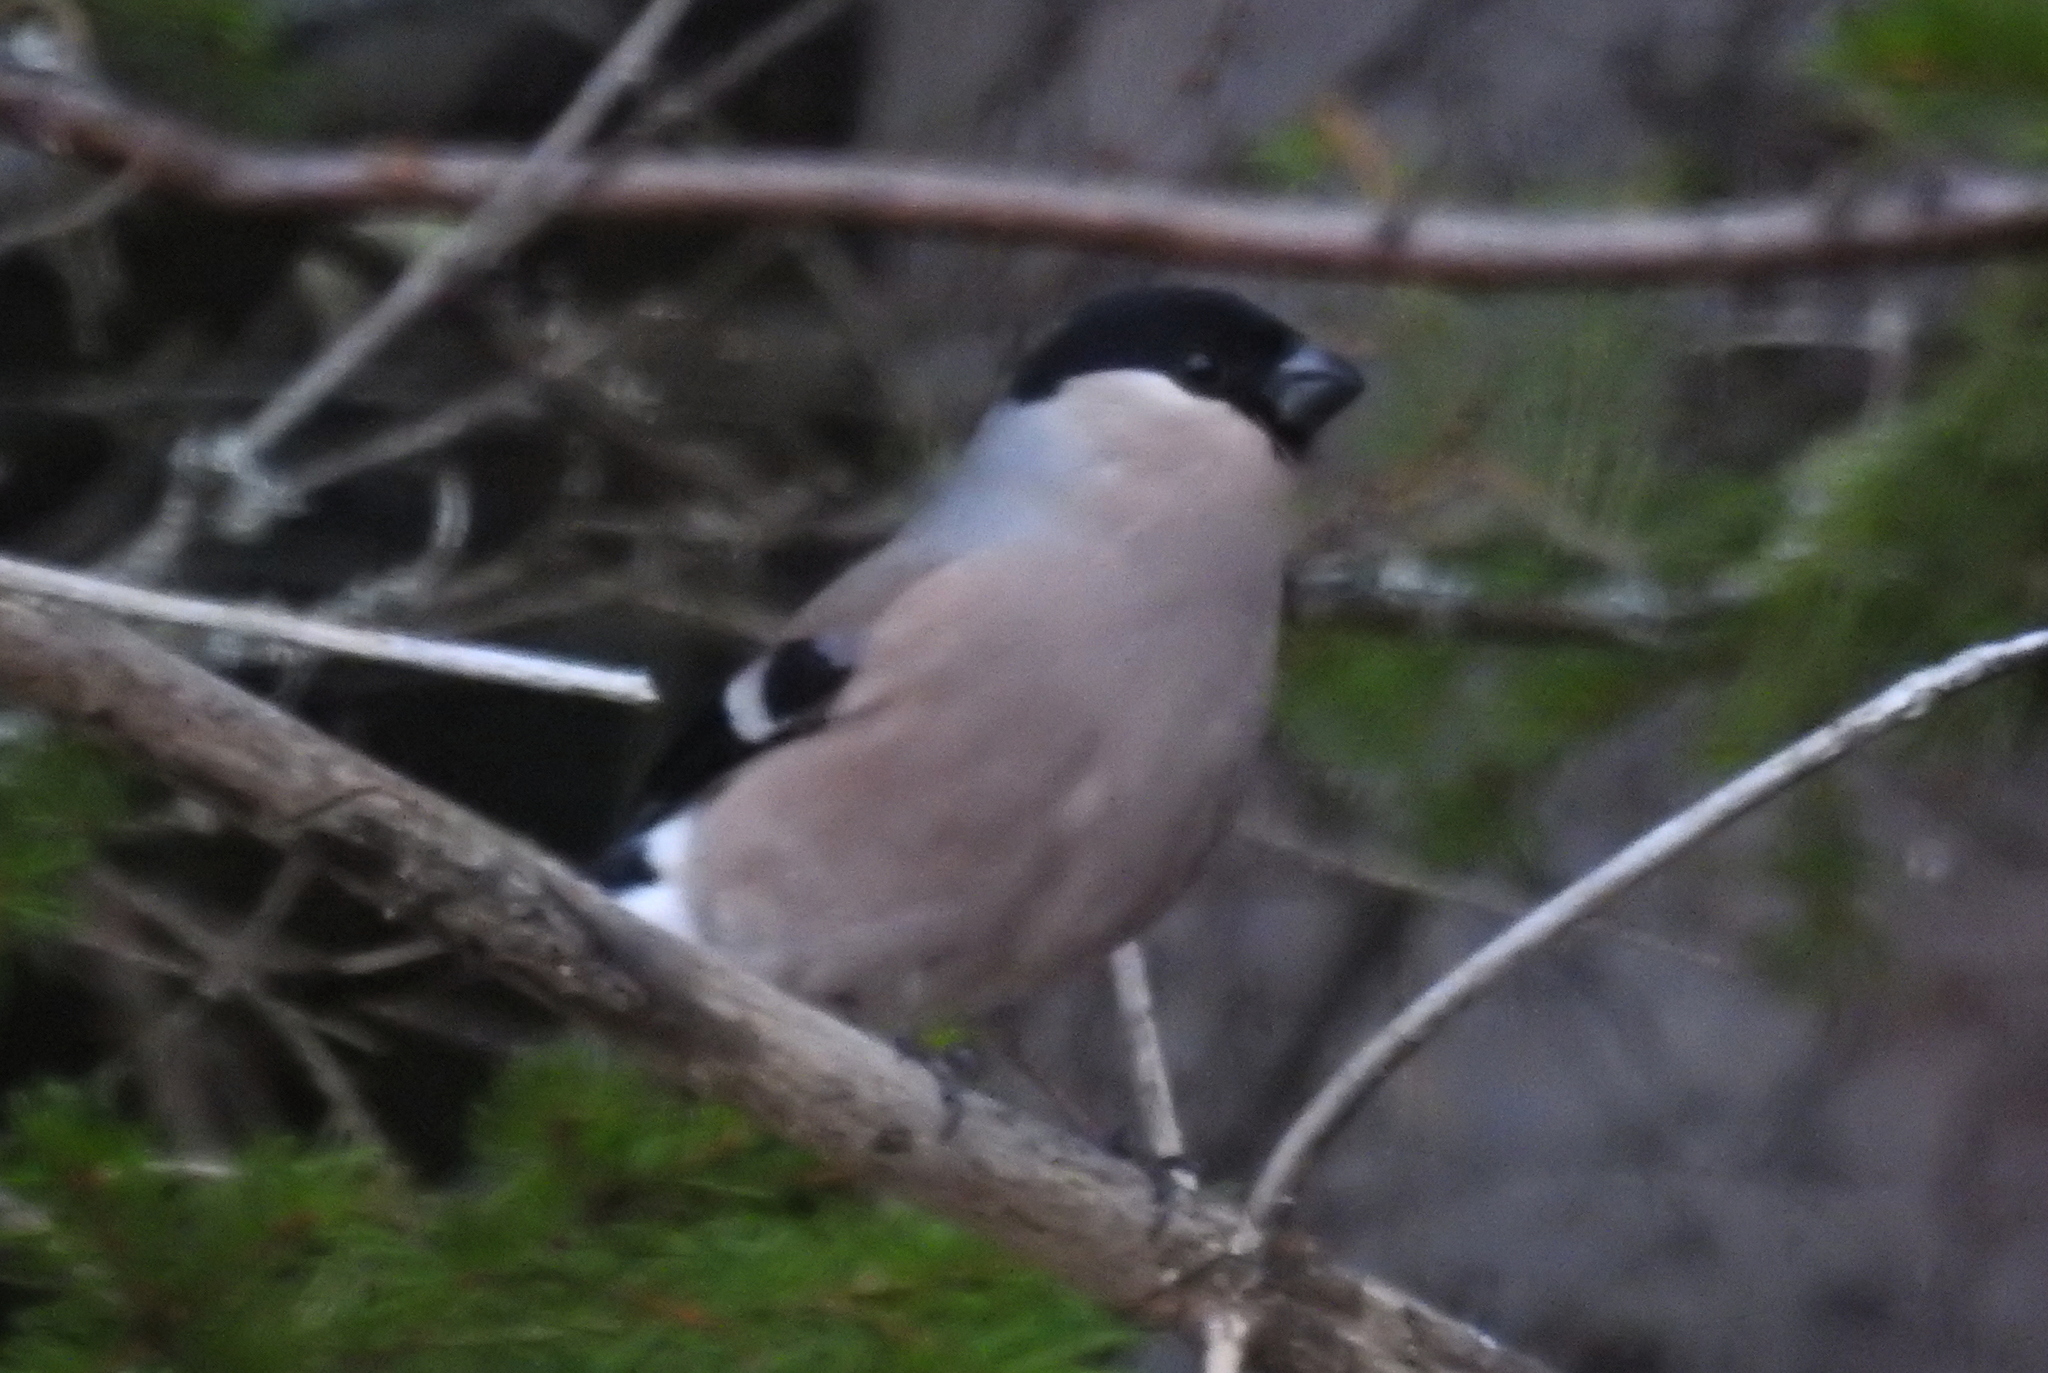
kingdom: Animalia
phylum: Chordata
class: Aves
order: Passeriformes
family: Fringillidae
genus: Pyrrhula
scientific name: Pyrrhula pyrrhula
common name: Eurasian bullfinch
